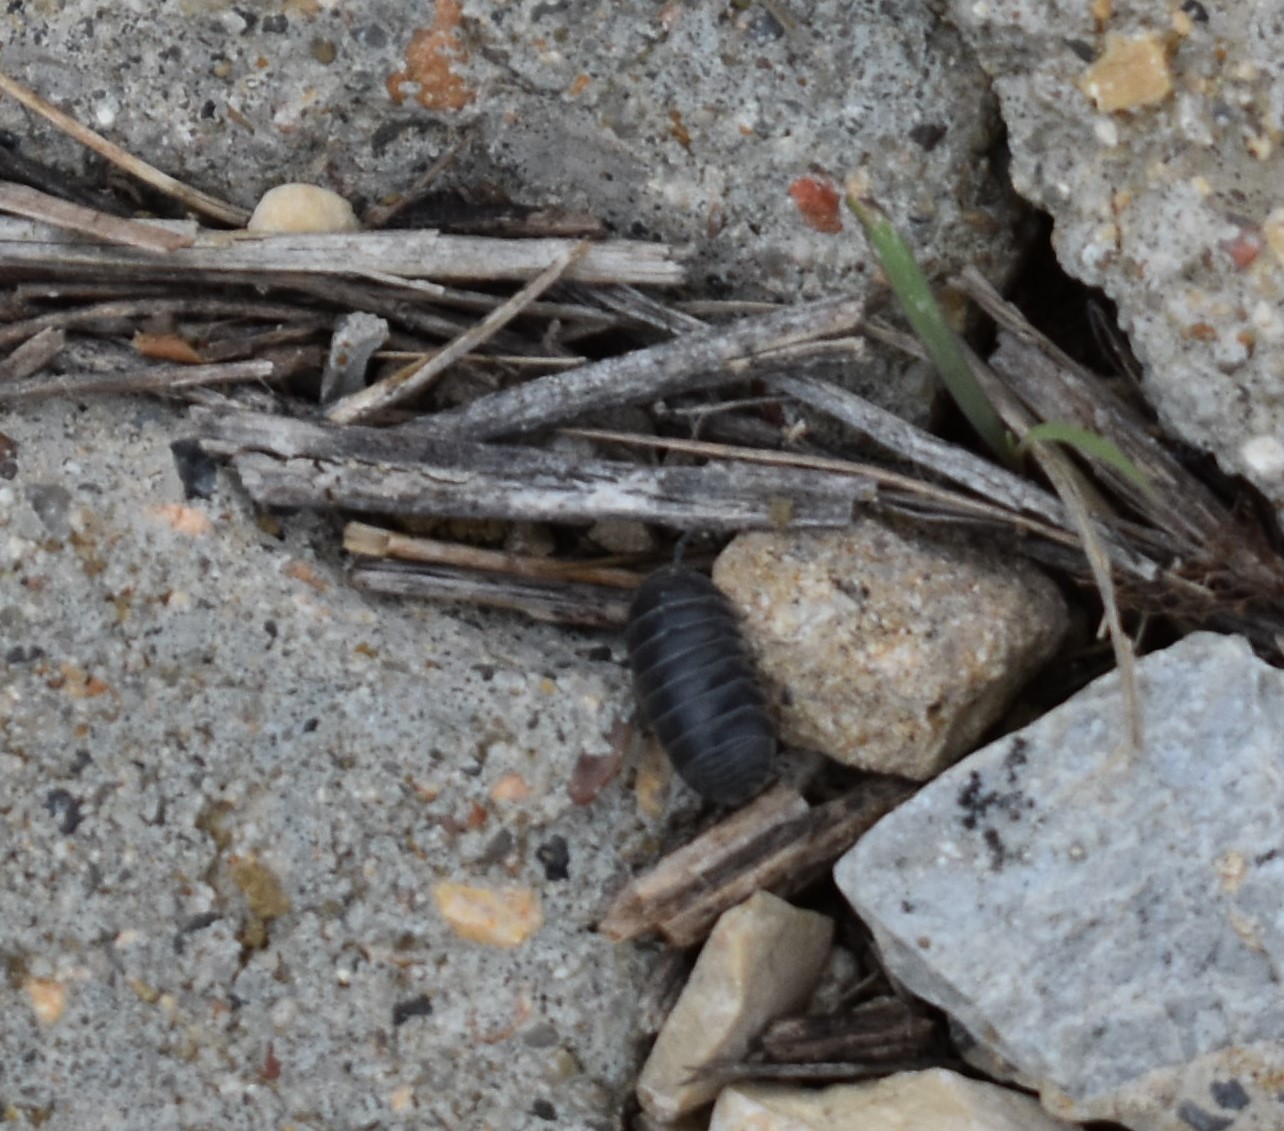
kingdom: Animalia
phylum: Arthropoda
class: Malacostraca
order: Isopoda
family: Armadillidiidae
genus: Armadillidium
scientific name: Armadillidium vulgare
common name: Common pill woodlouse
